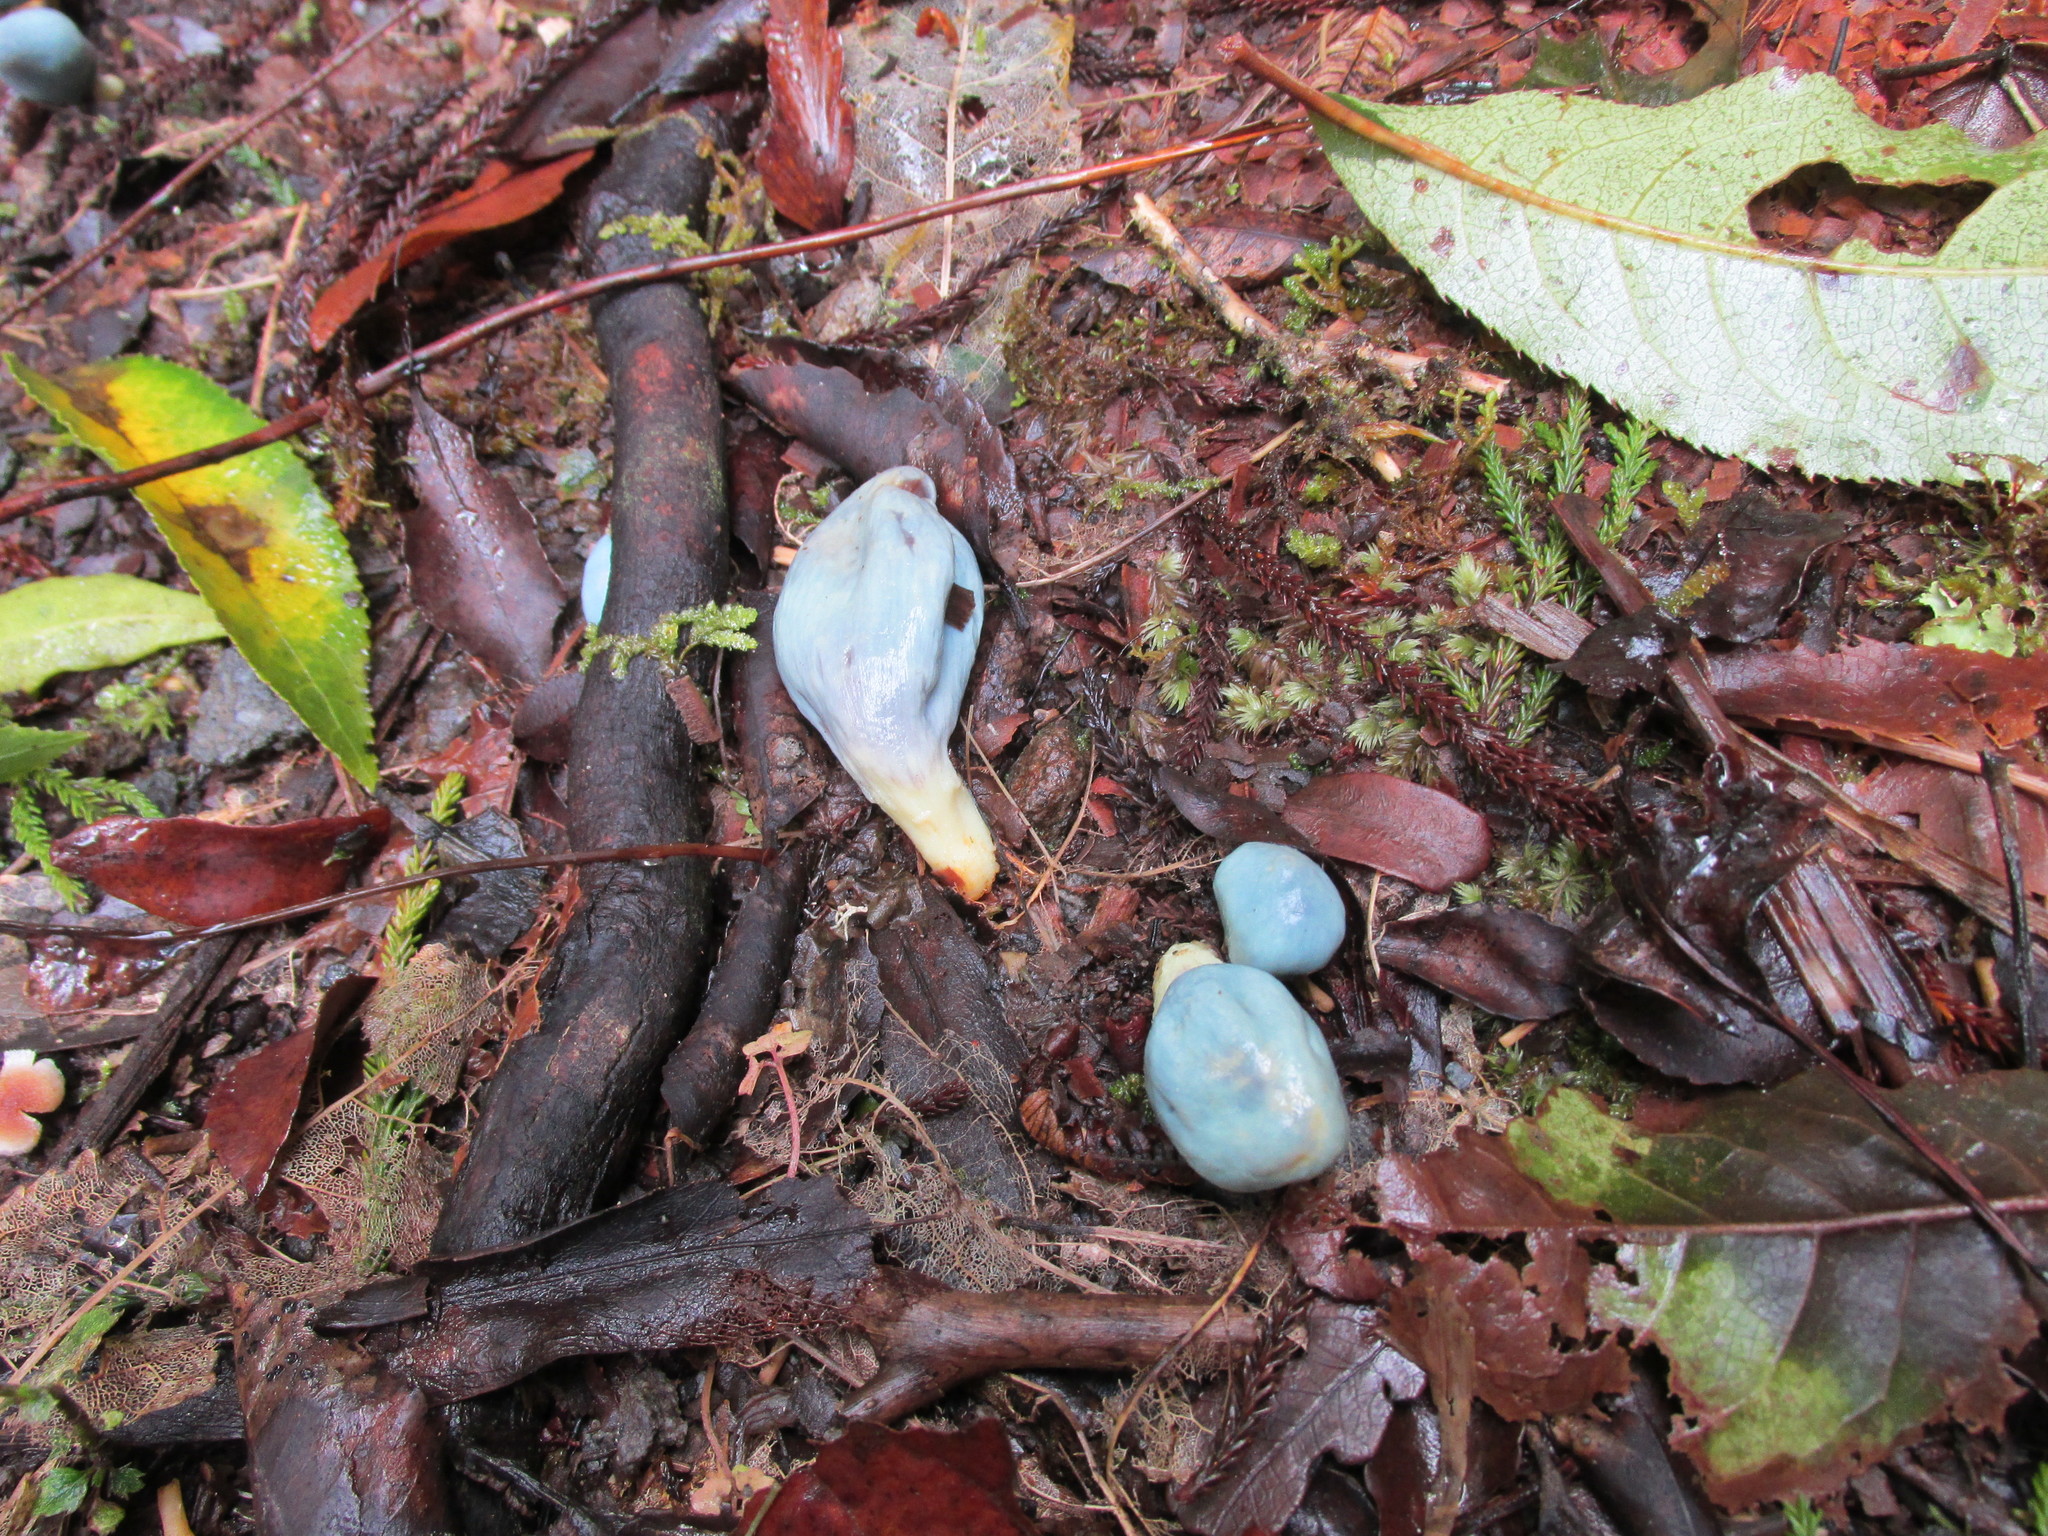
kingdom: Fungi
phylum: Basidiomycota
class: Agaricomycetes
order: Agaricales
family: Agaricaceae
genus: Clavogaster
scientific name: Clavogaster virescens
